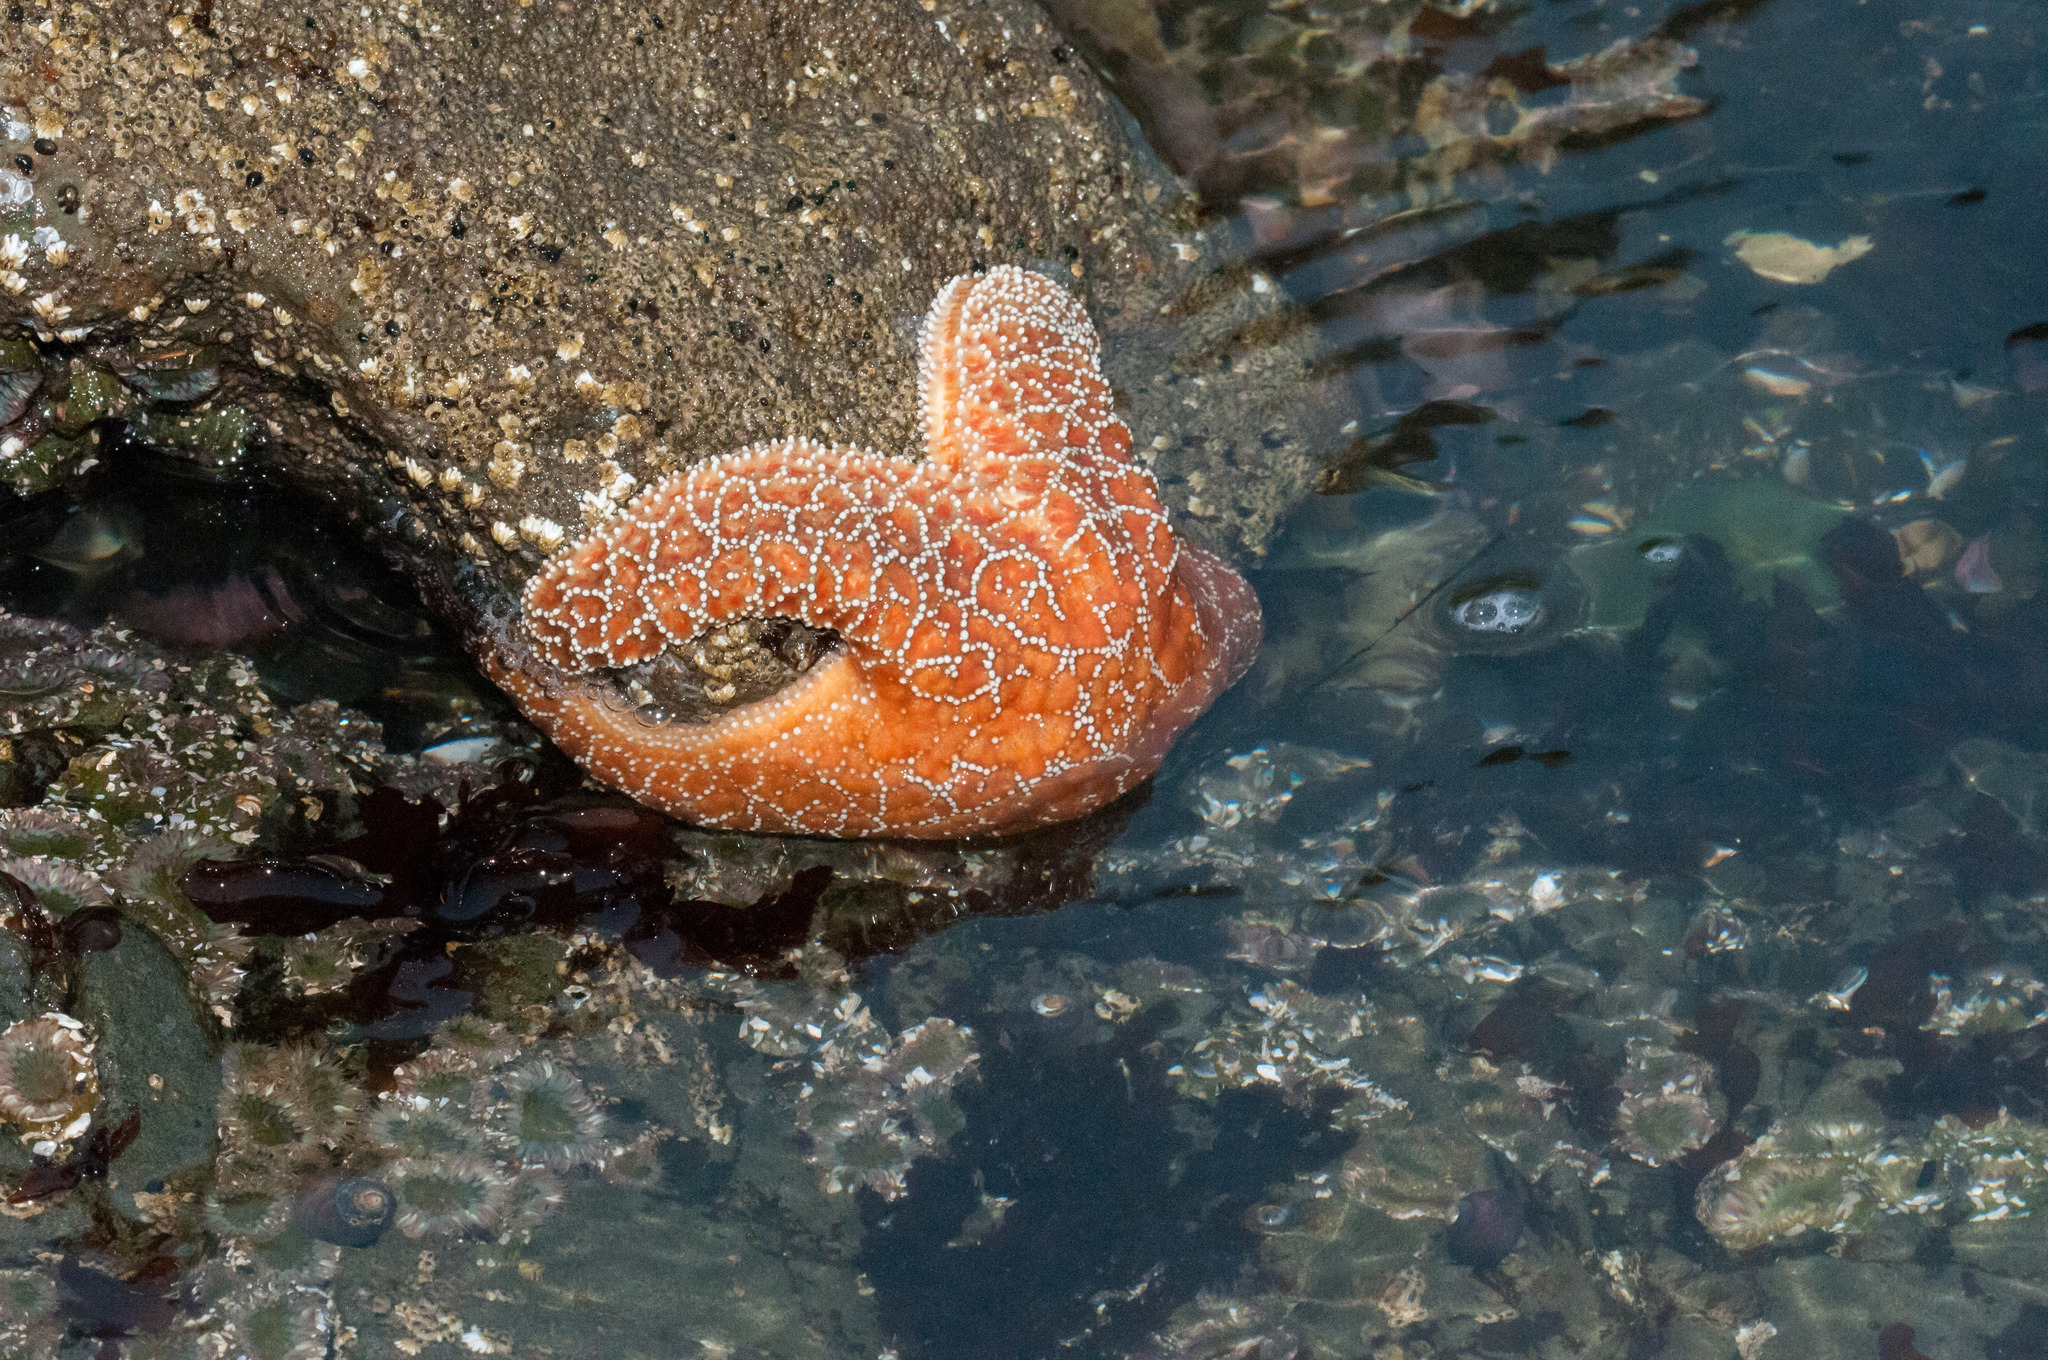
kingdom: Animalia
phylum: Echinodermata
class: Asteroidea
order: Forcipulatida
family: Asteriidae
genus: Pisaster
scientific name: Pisaster ochraceus
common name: Ochre stars
